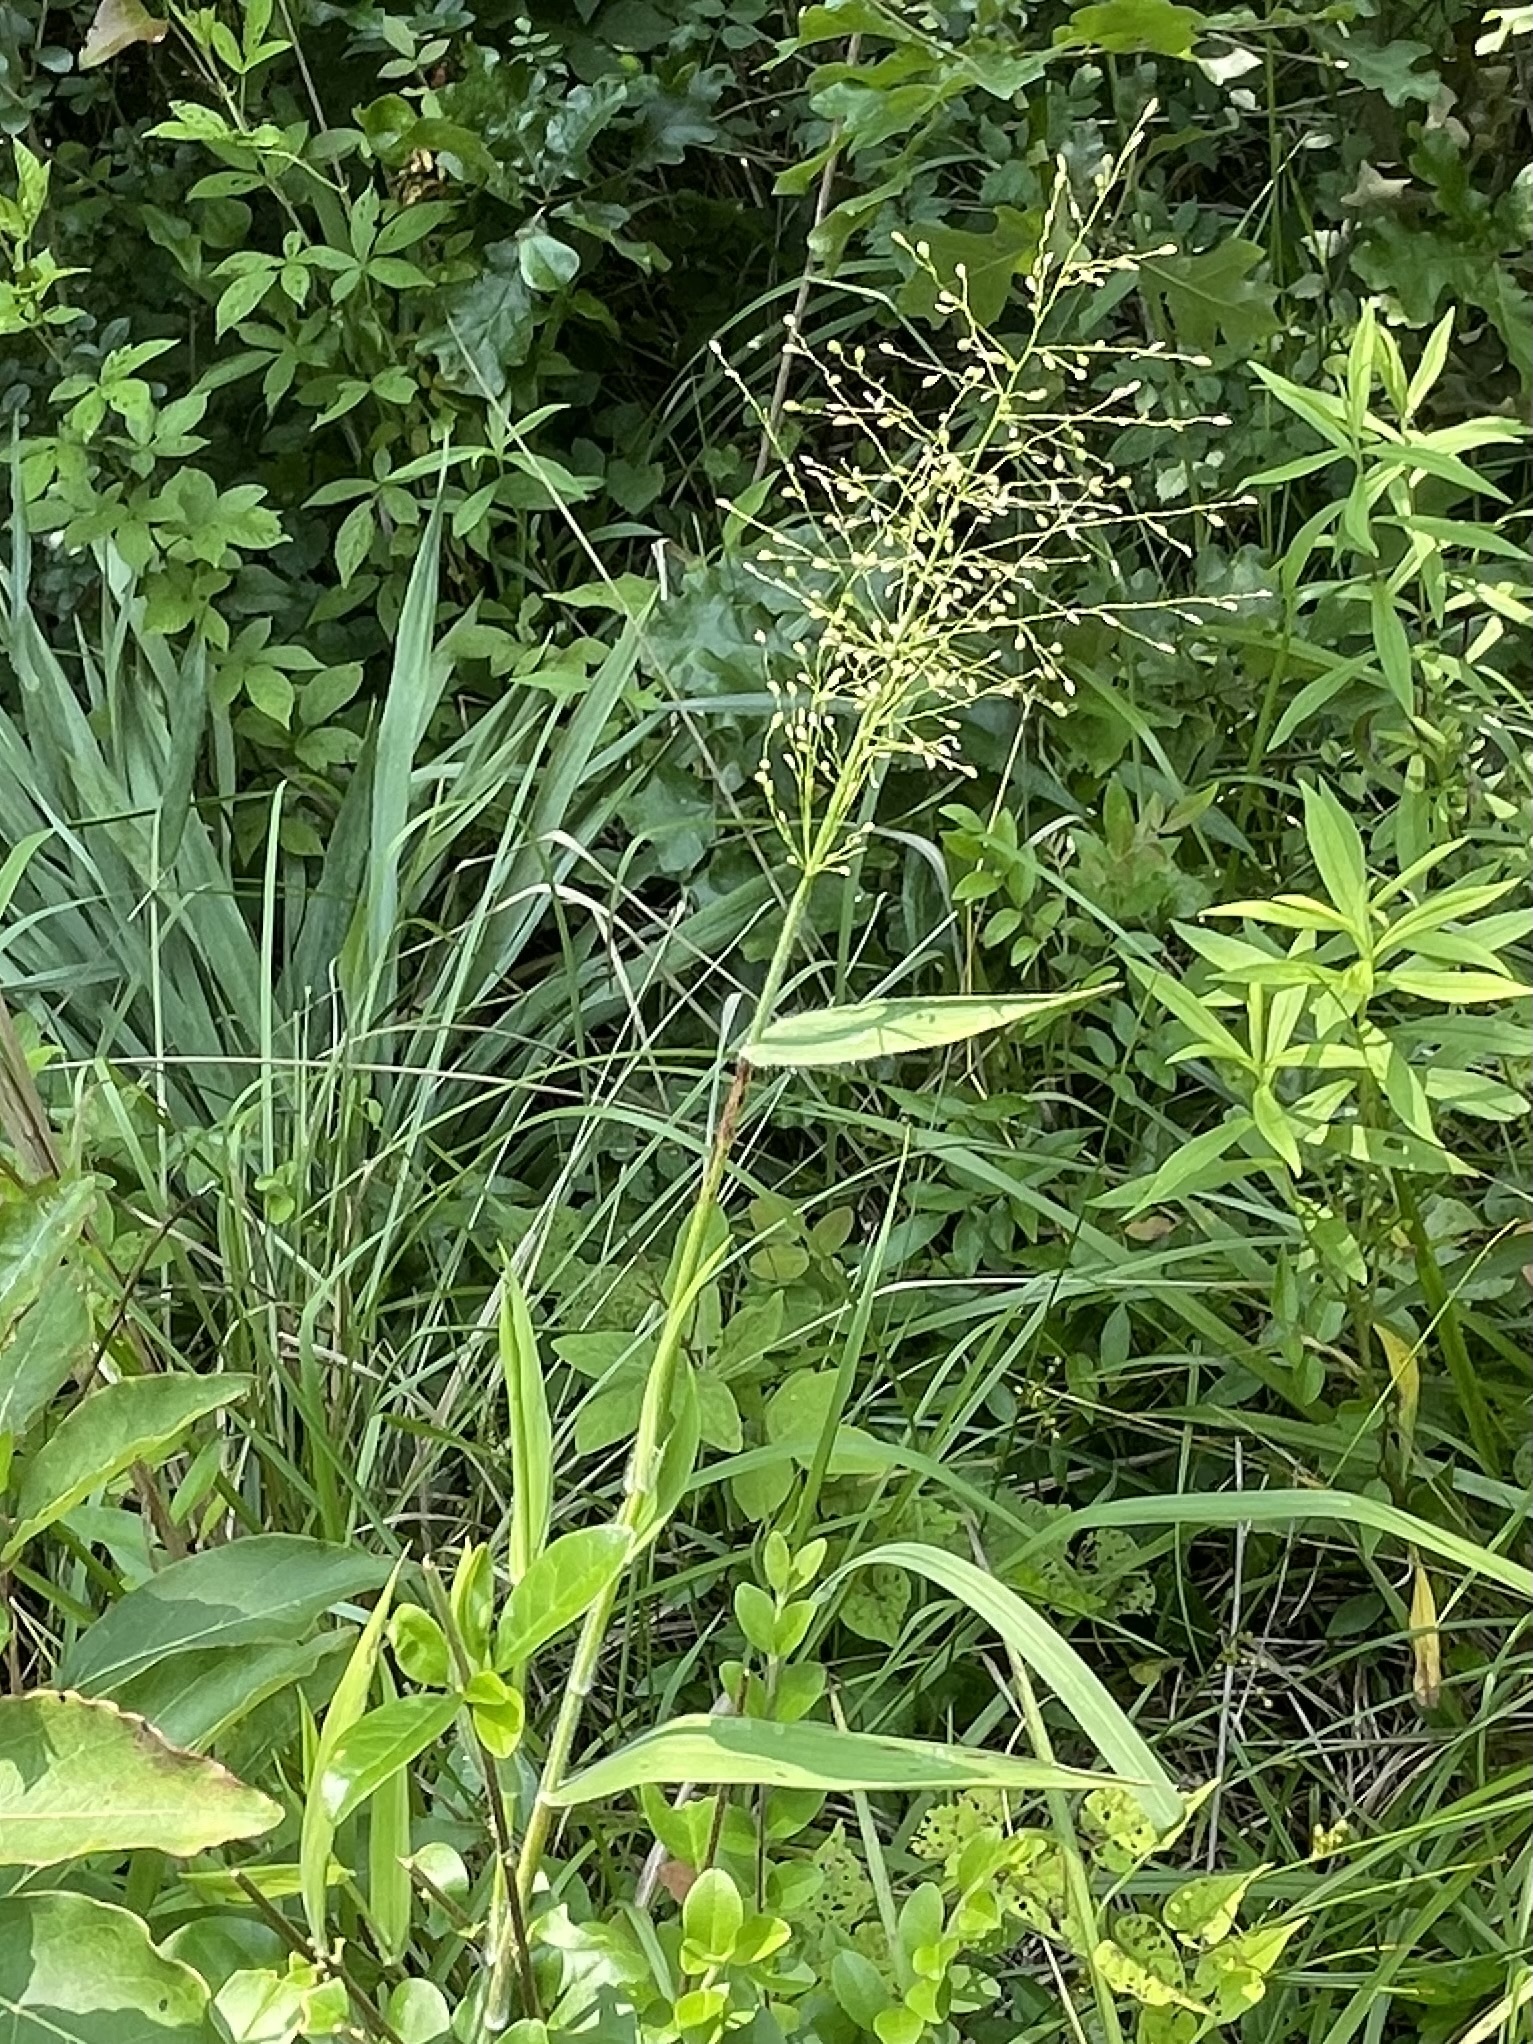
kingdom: Plantae
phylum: Tracheophyta
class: Liliopsida
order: Poales
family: Poaceae
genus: Dichanthelium
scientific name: Dichanthelium scoparium
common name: Velvety panic grass
